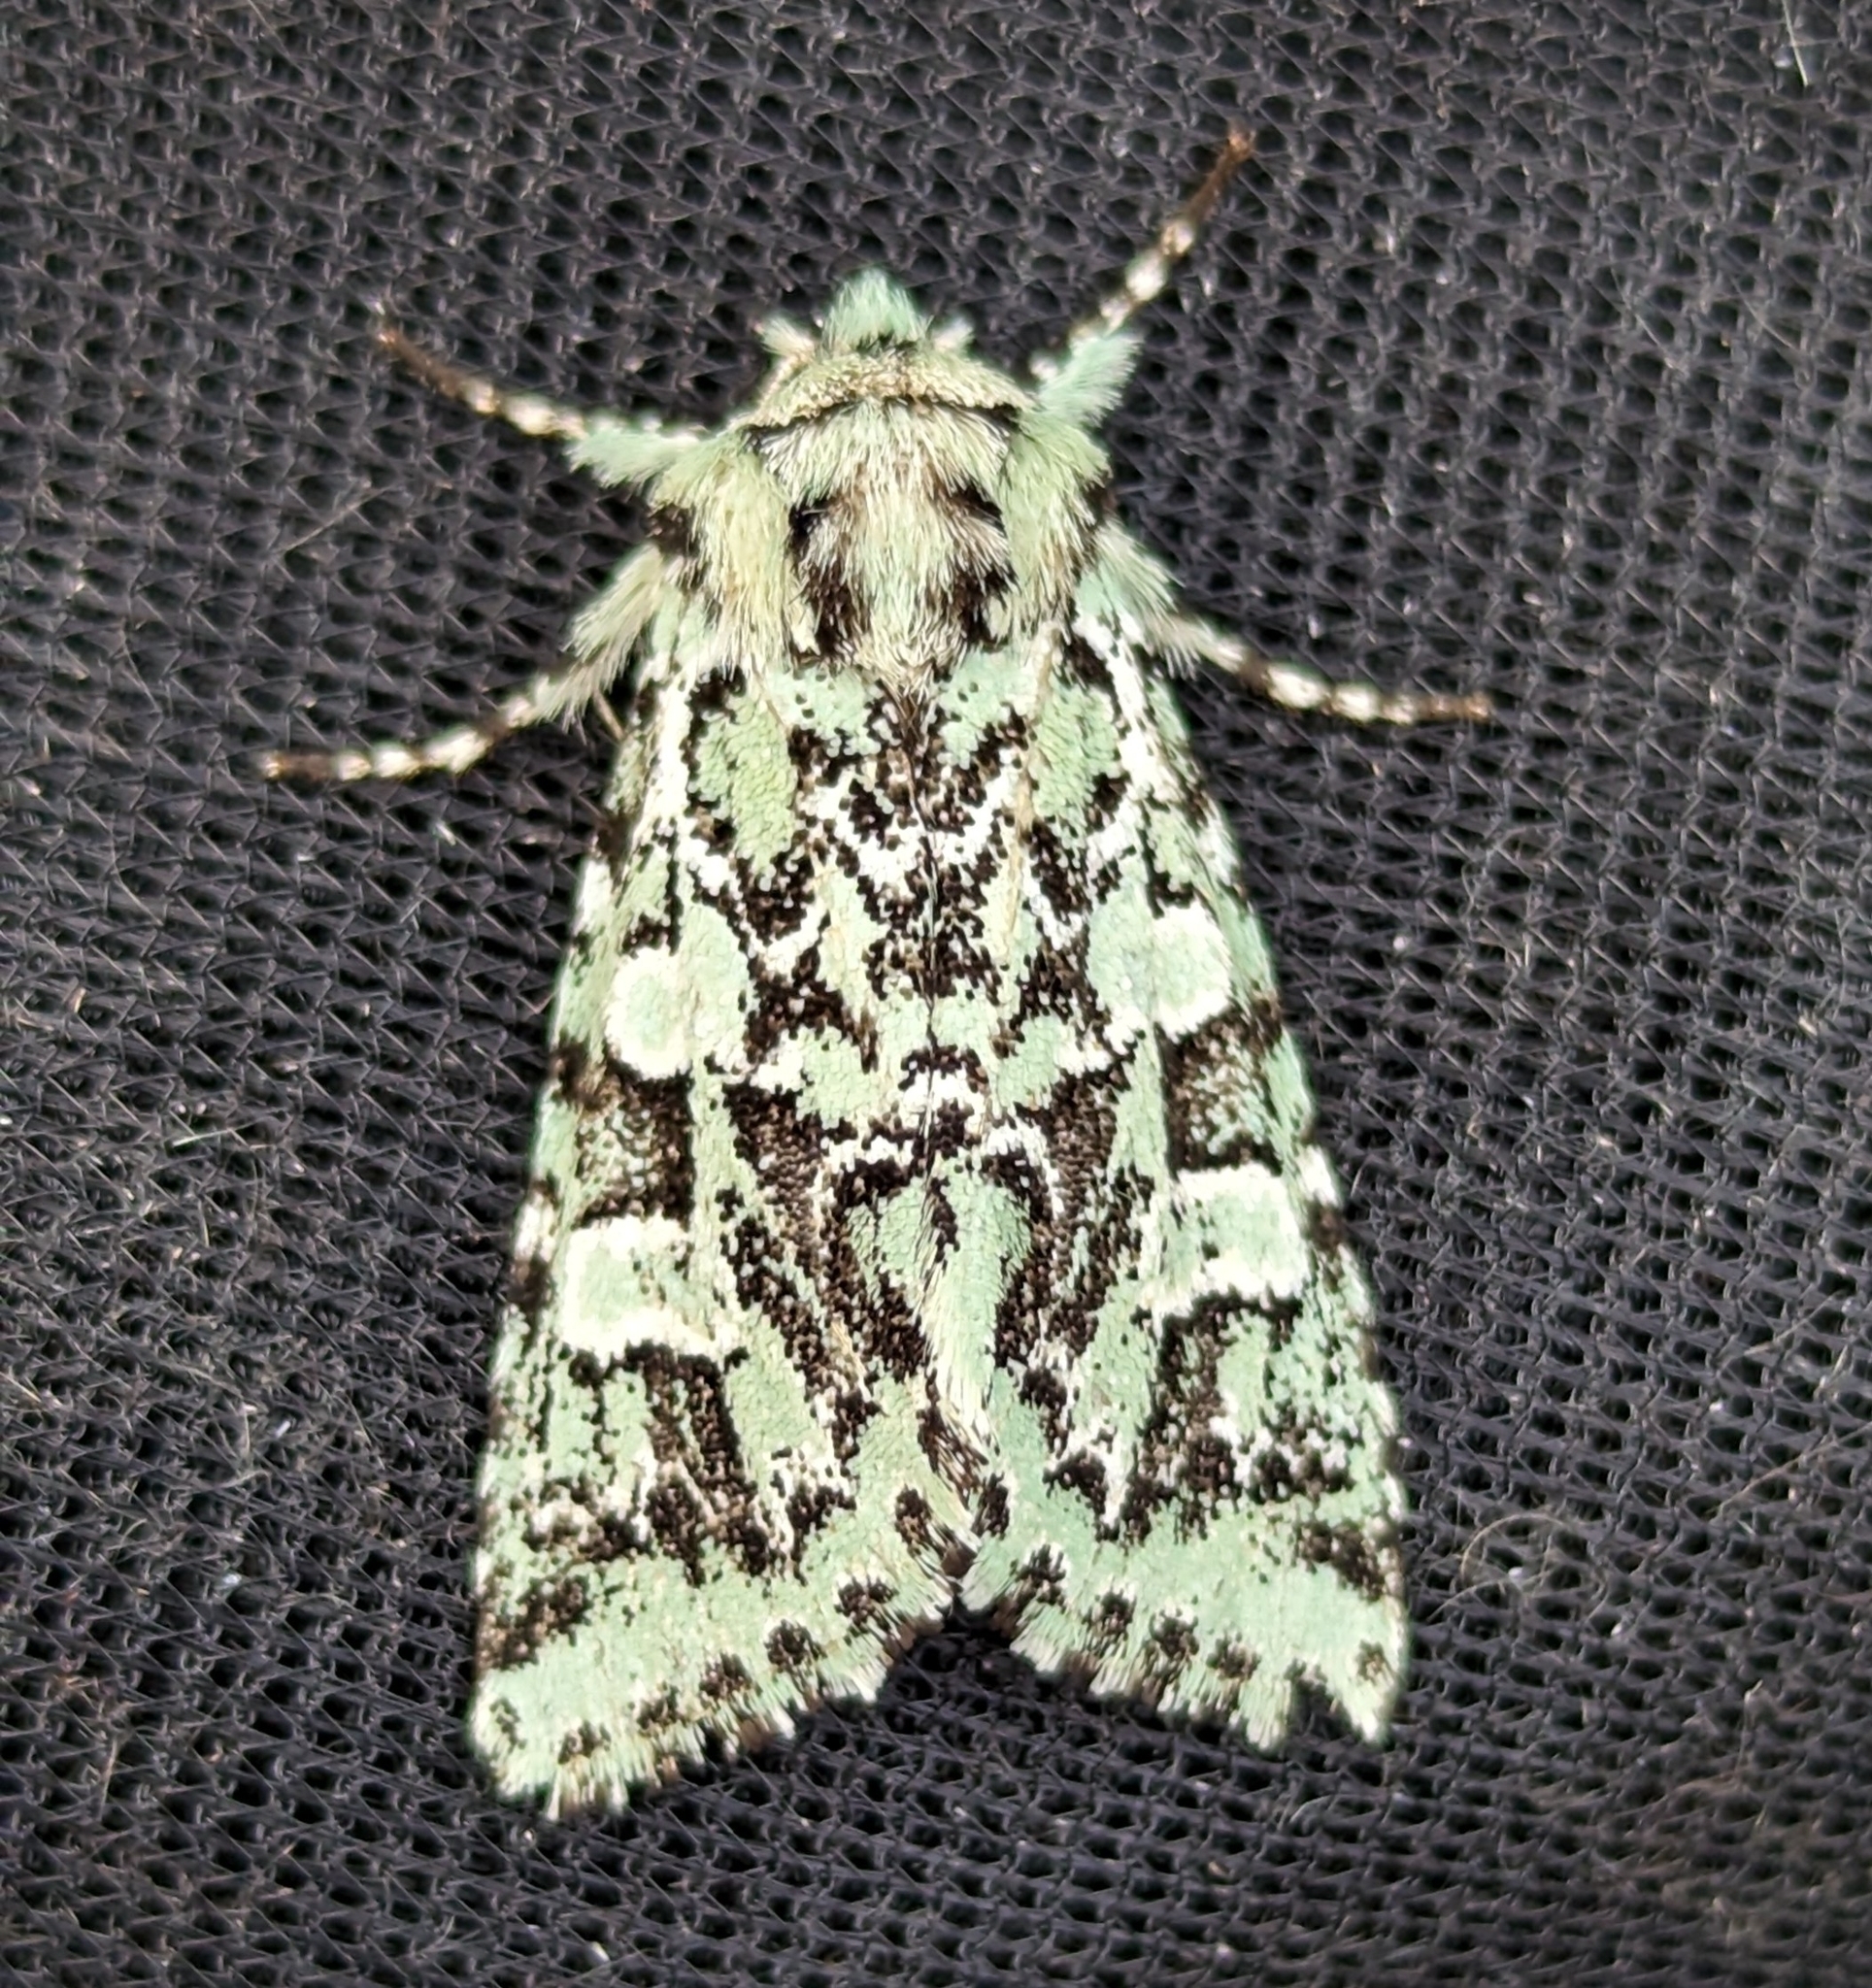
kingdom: Animalia
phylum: Arthropoda
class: Insecta
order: Lepidoptera
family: Noctuidae
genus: Feralia
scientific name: Feralia comstocki
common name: Comstock's sallow
